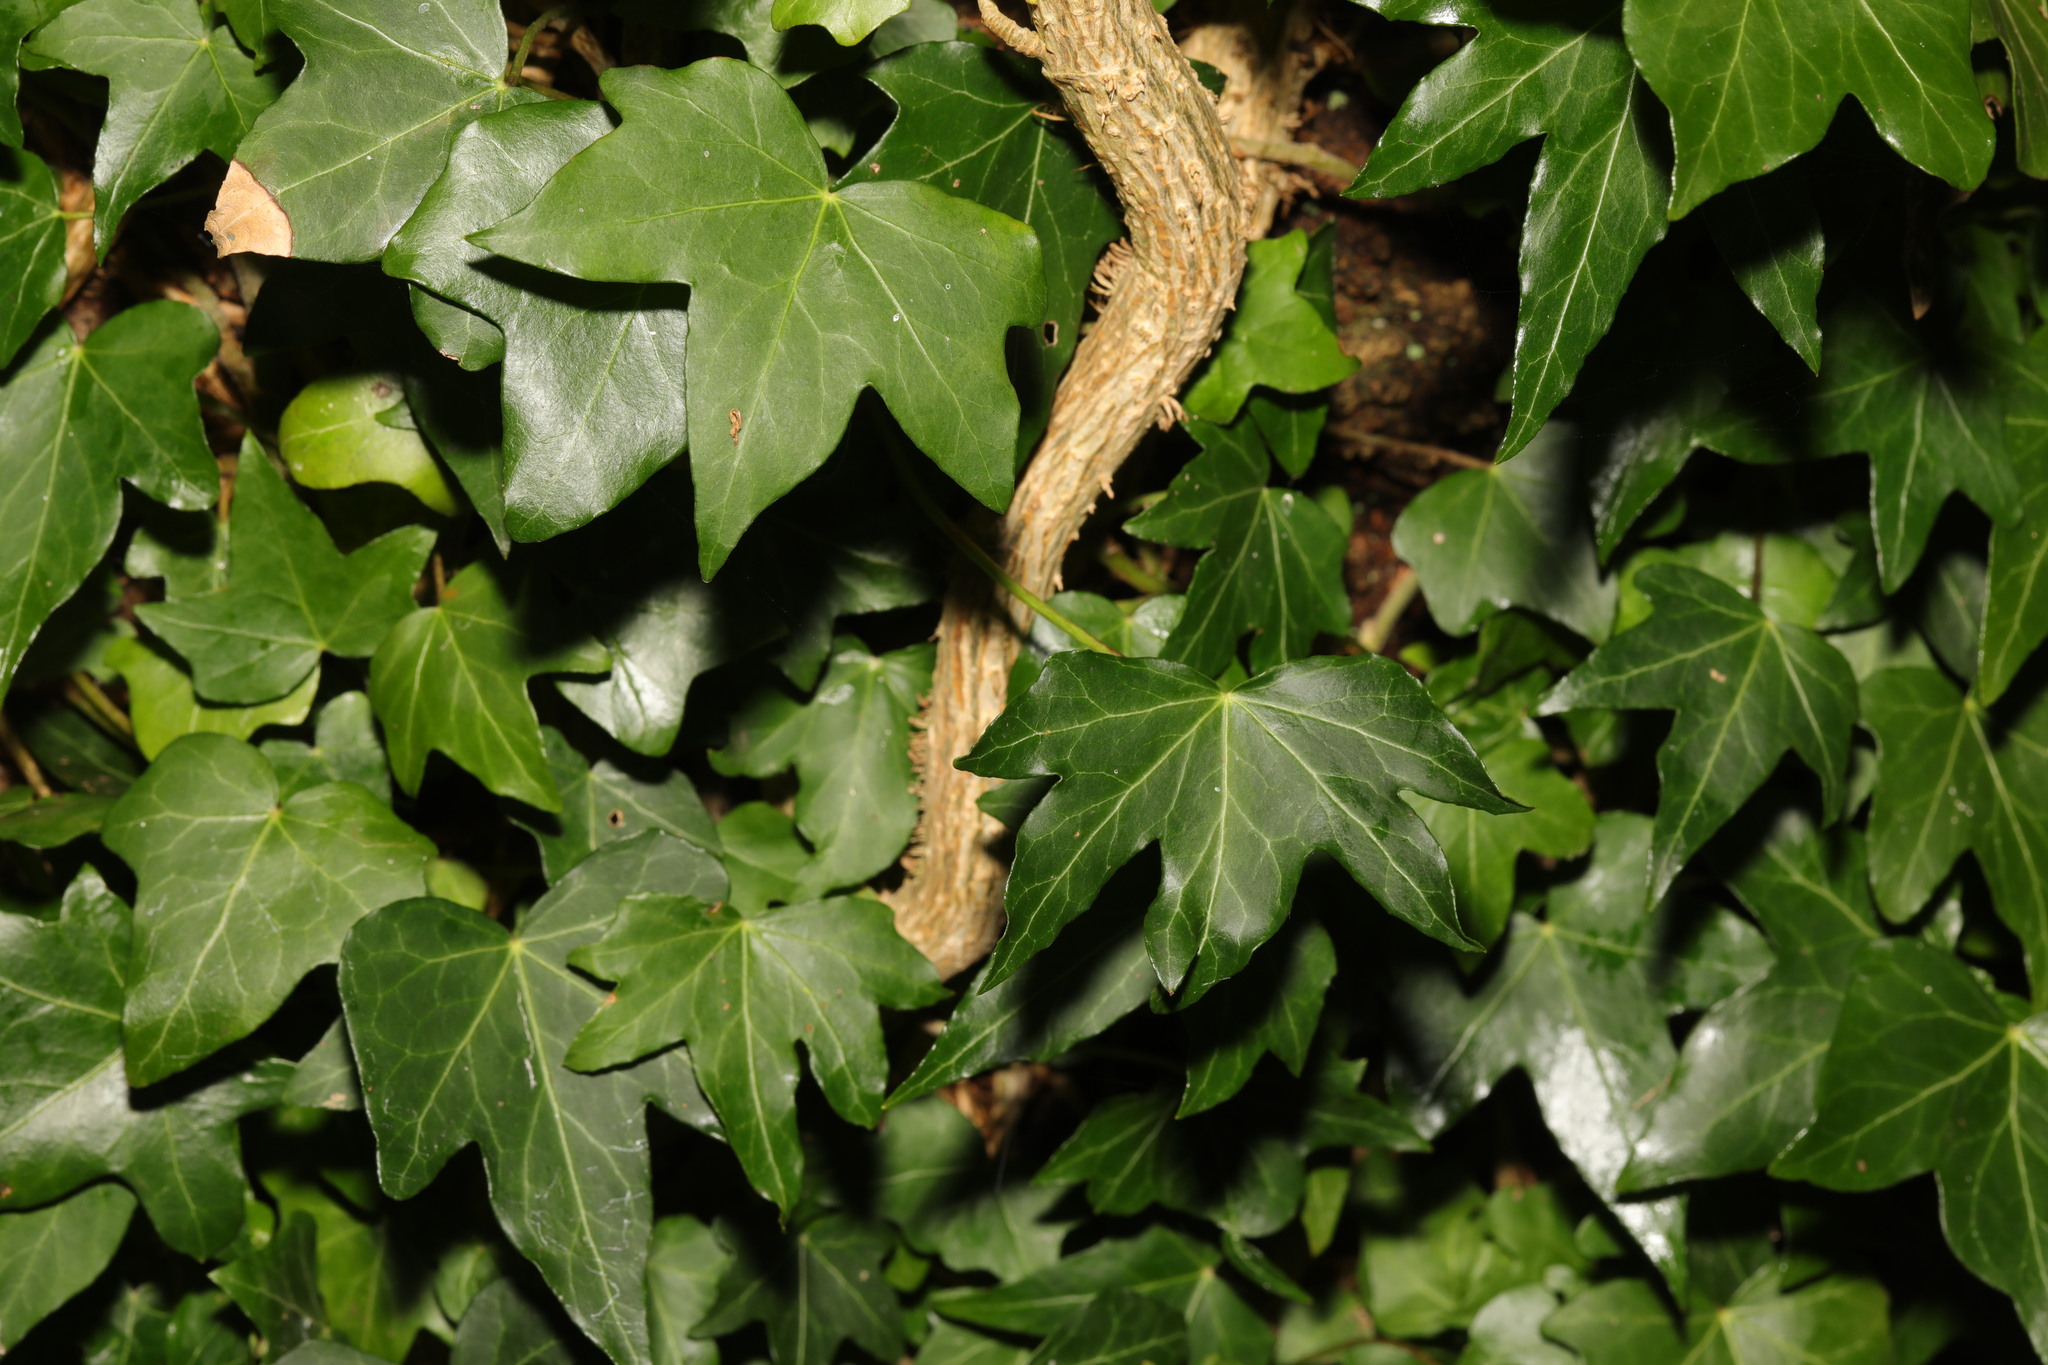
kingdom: Plantae
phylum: Tracheophyta
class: Magnoliopsida
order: Apiales
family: Araliaceae
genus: Hedera
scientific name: Hedera helix
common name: Ivy
